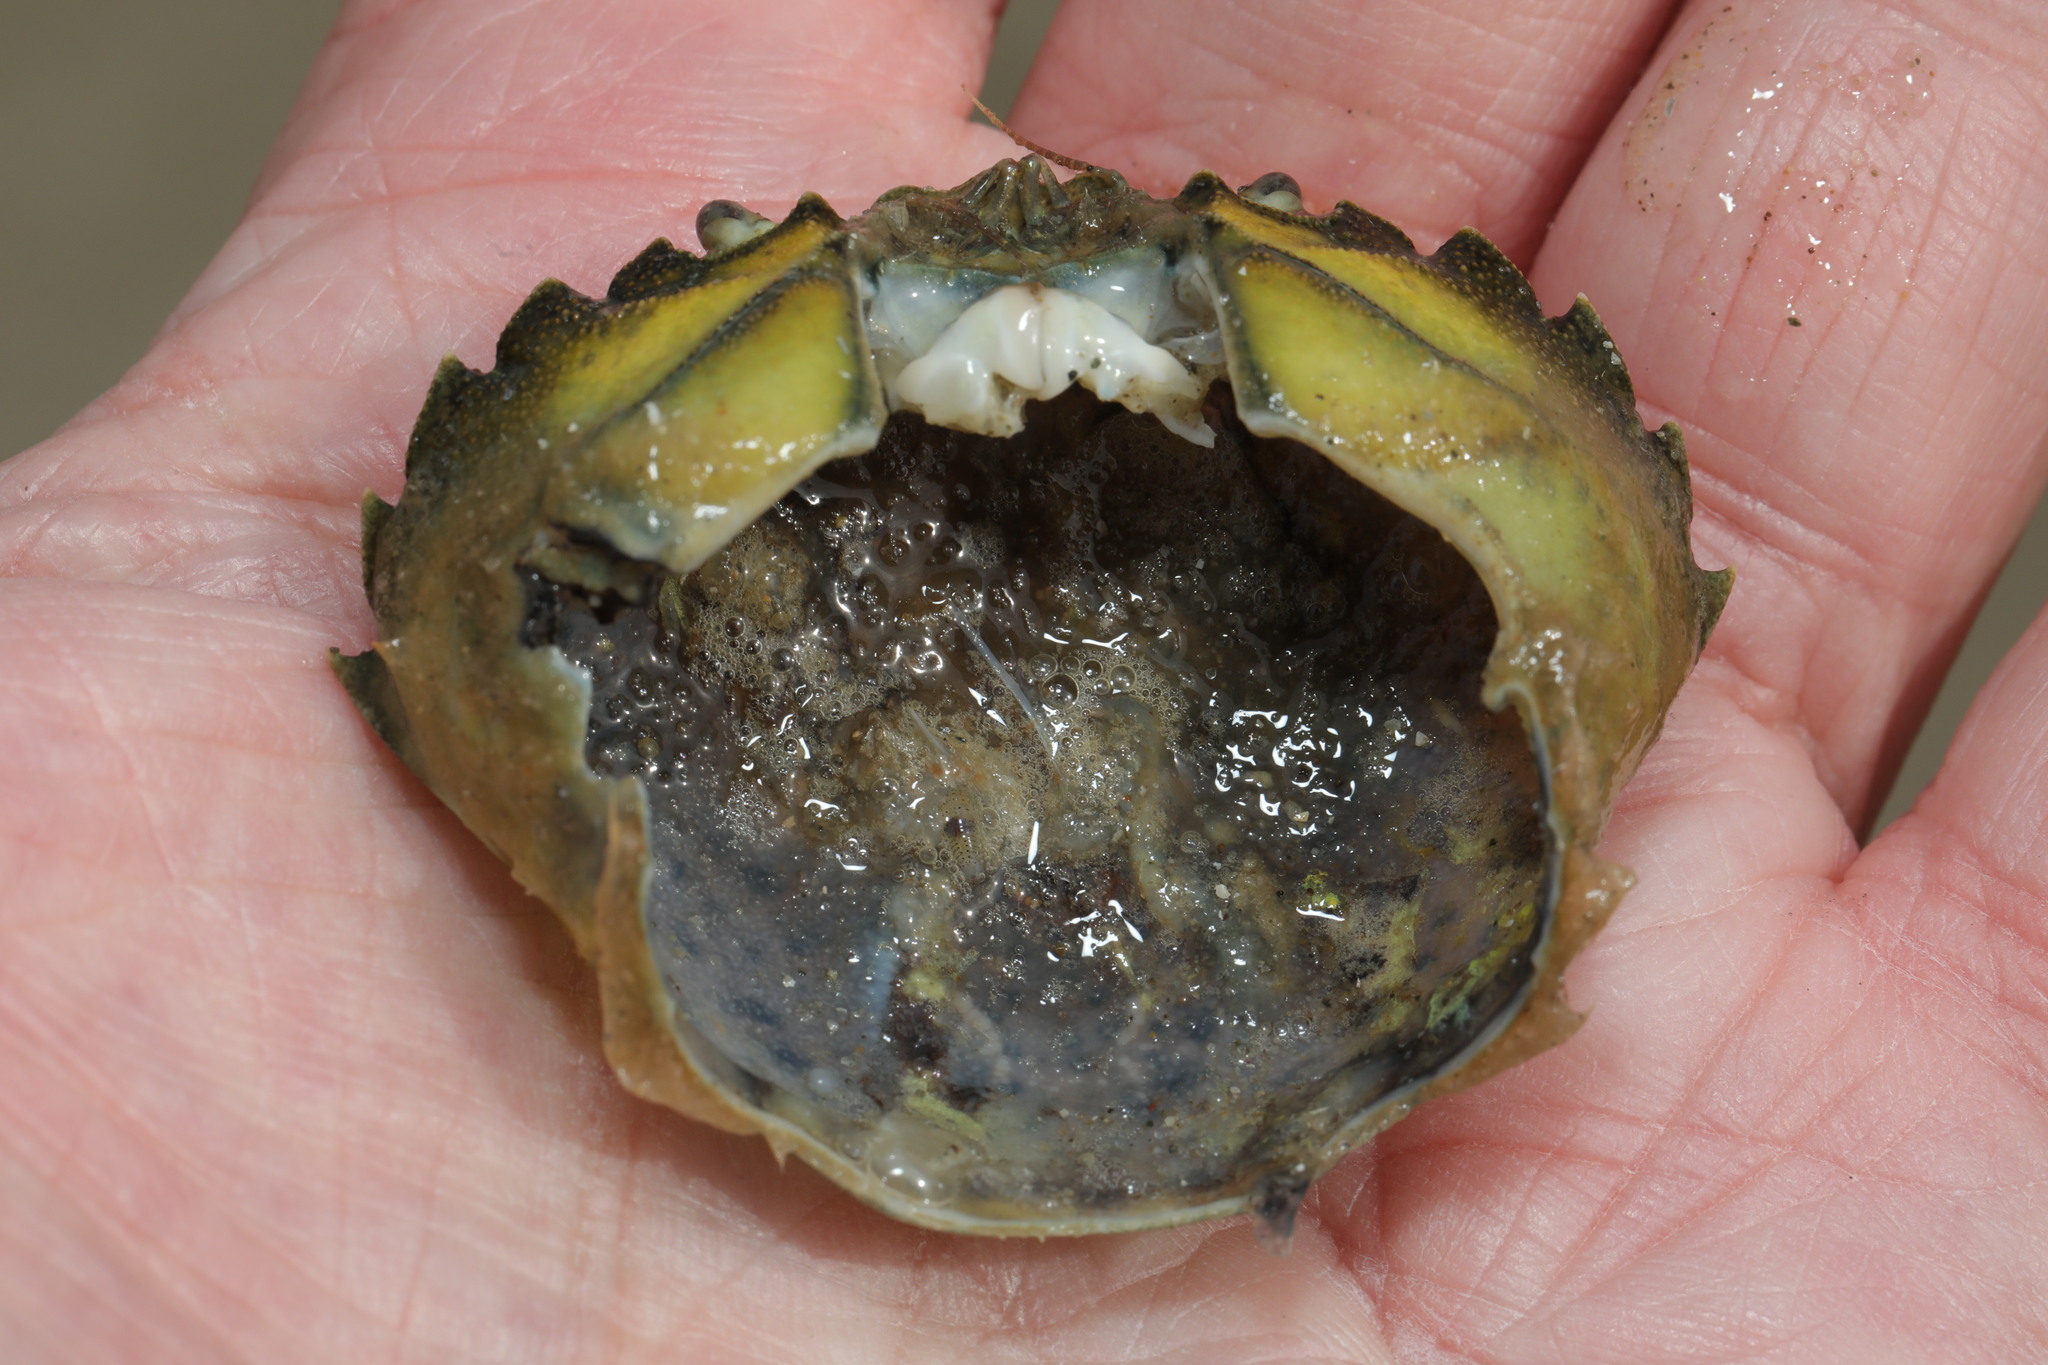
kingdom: Animalia
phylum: Arthropoda
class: Malacostraca
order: Decapoda
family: Carcinidae
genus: Carcinus
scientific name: Carcinus maenas
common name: European green crab
